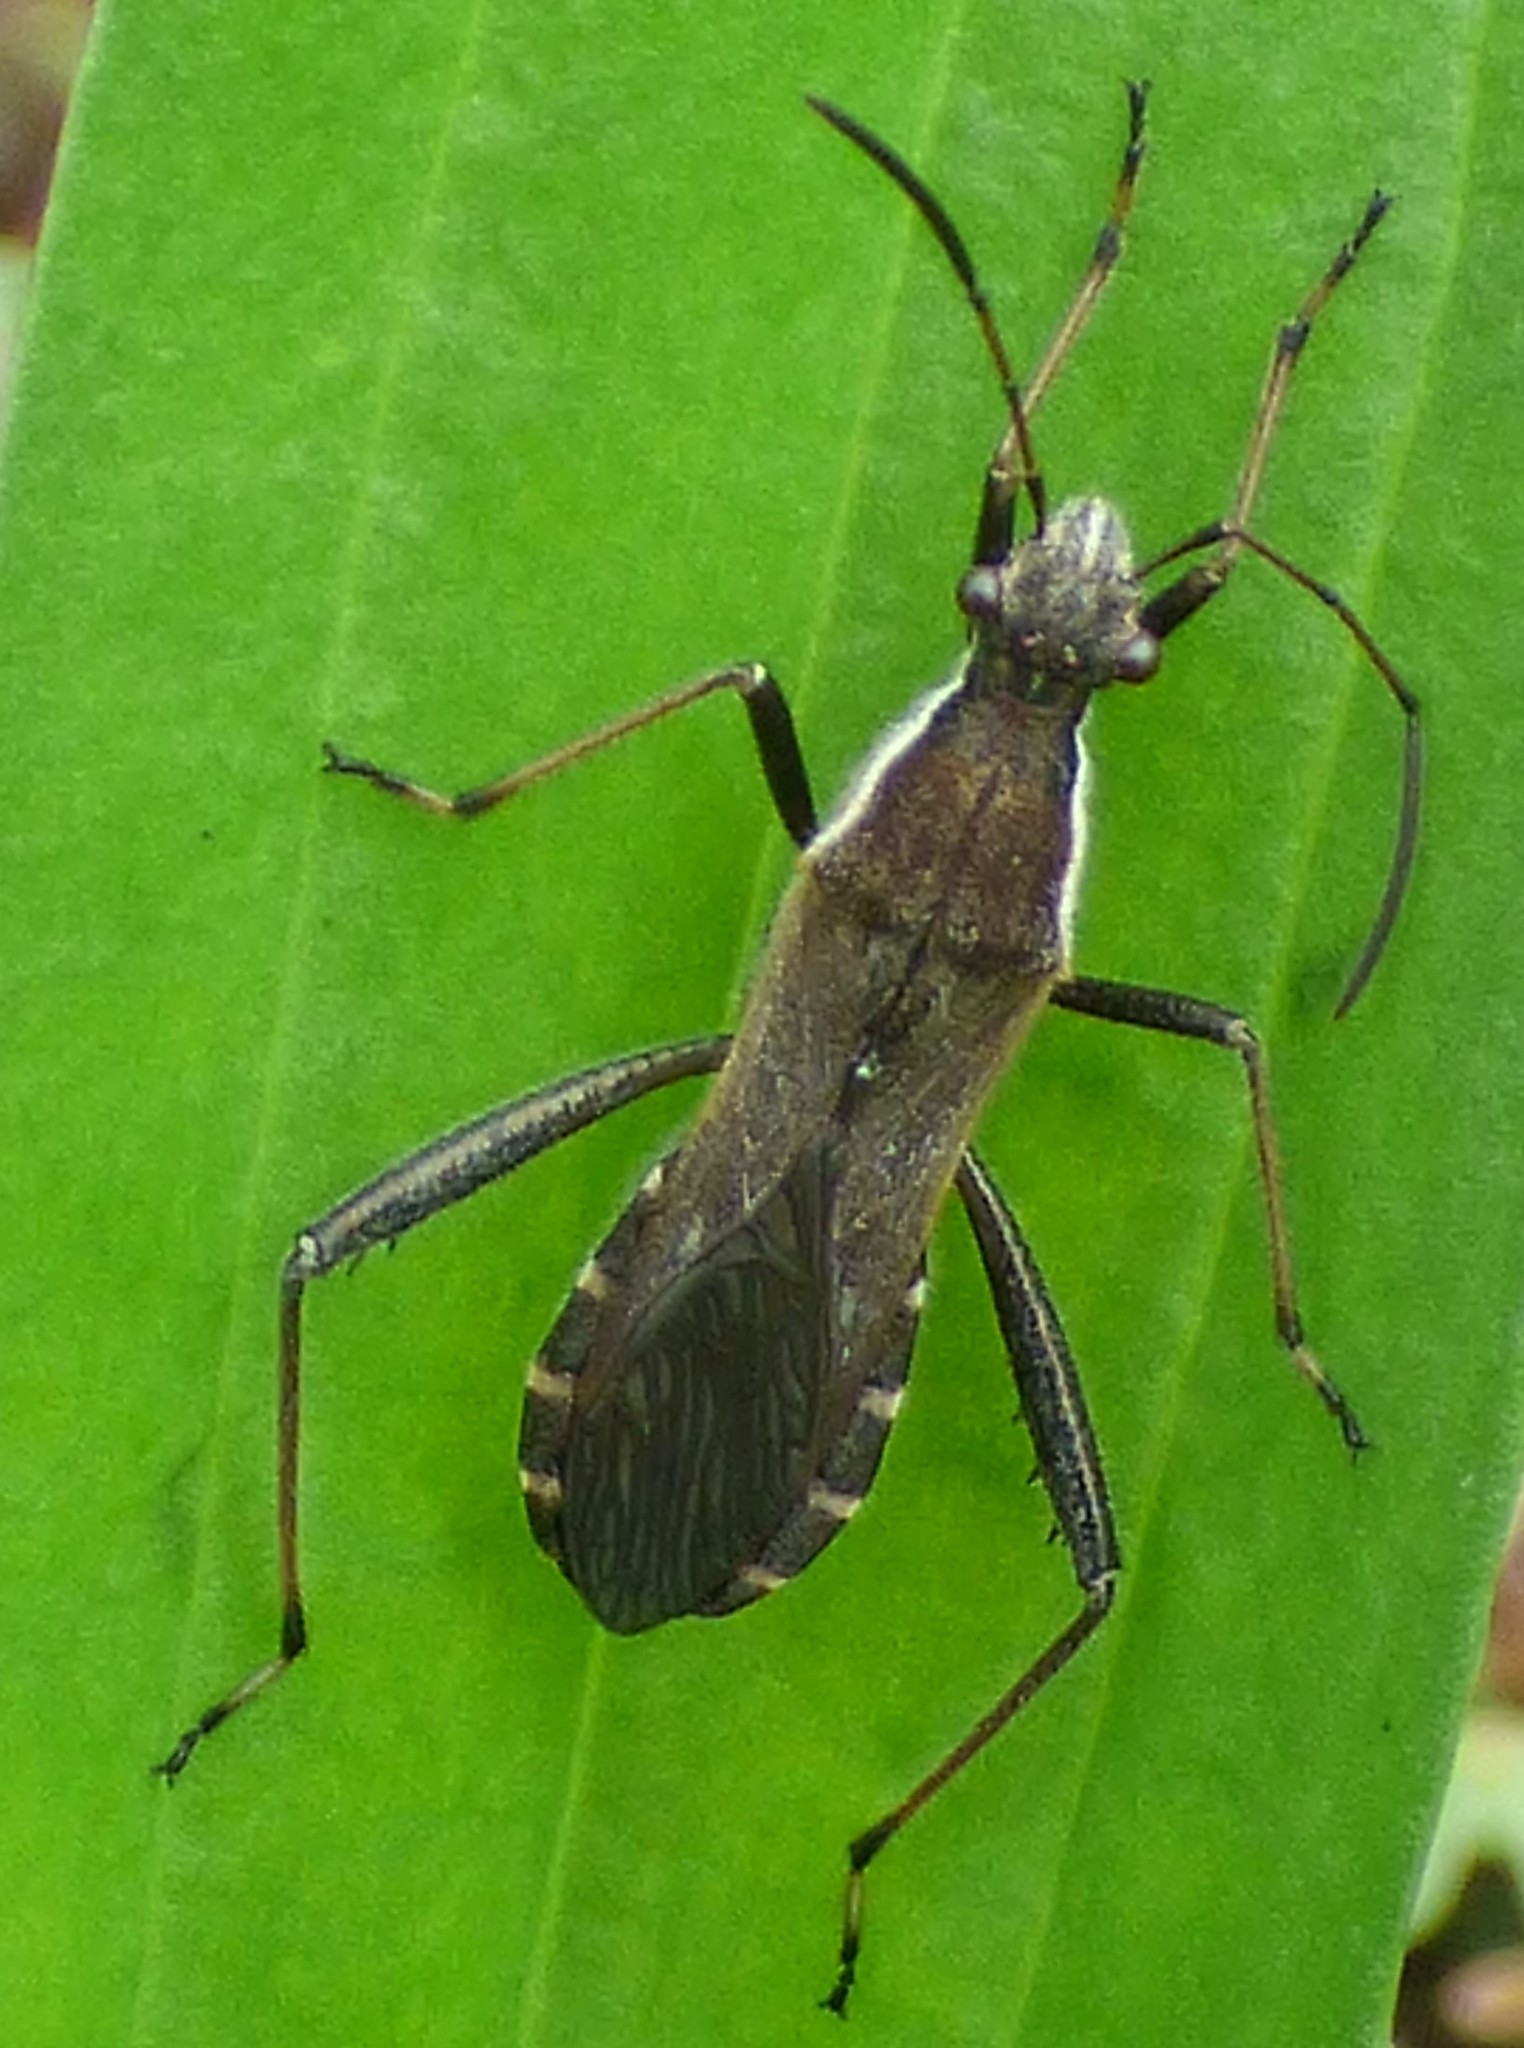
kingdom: Animalia
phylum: Arthropoda
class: Insecta
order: Hemiptera
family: Alydidae
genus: Alydus
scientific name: Alydus pilosulus
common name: Broad-headed bug
